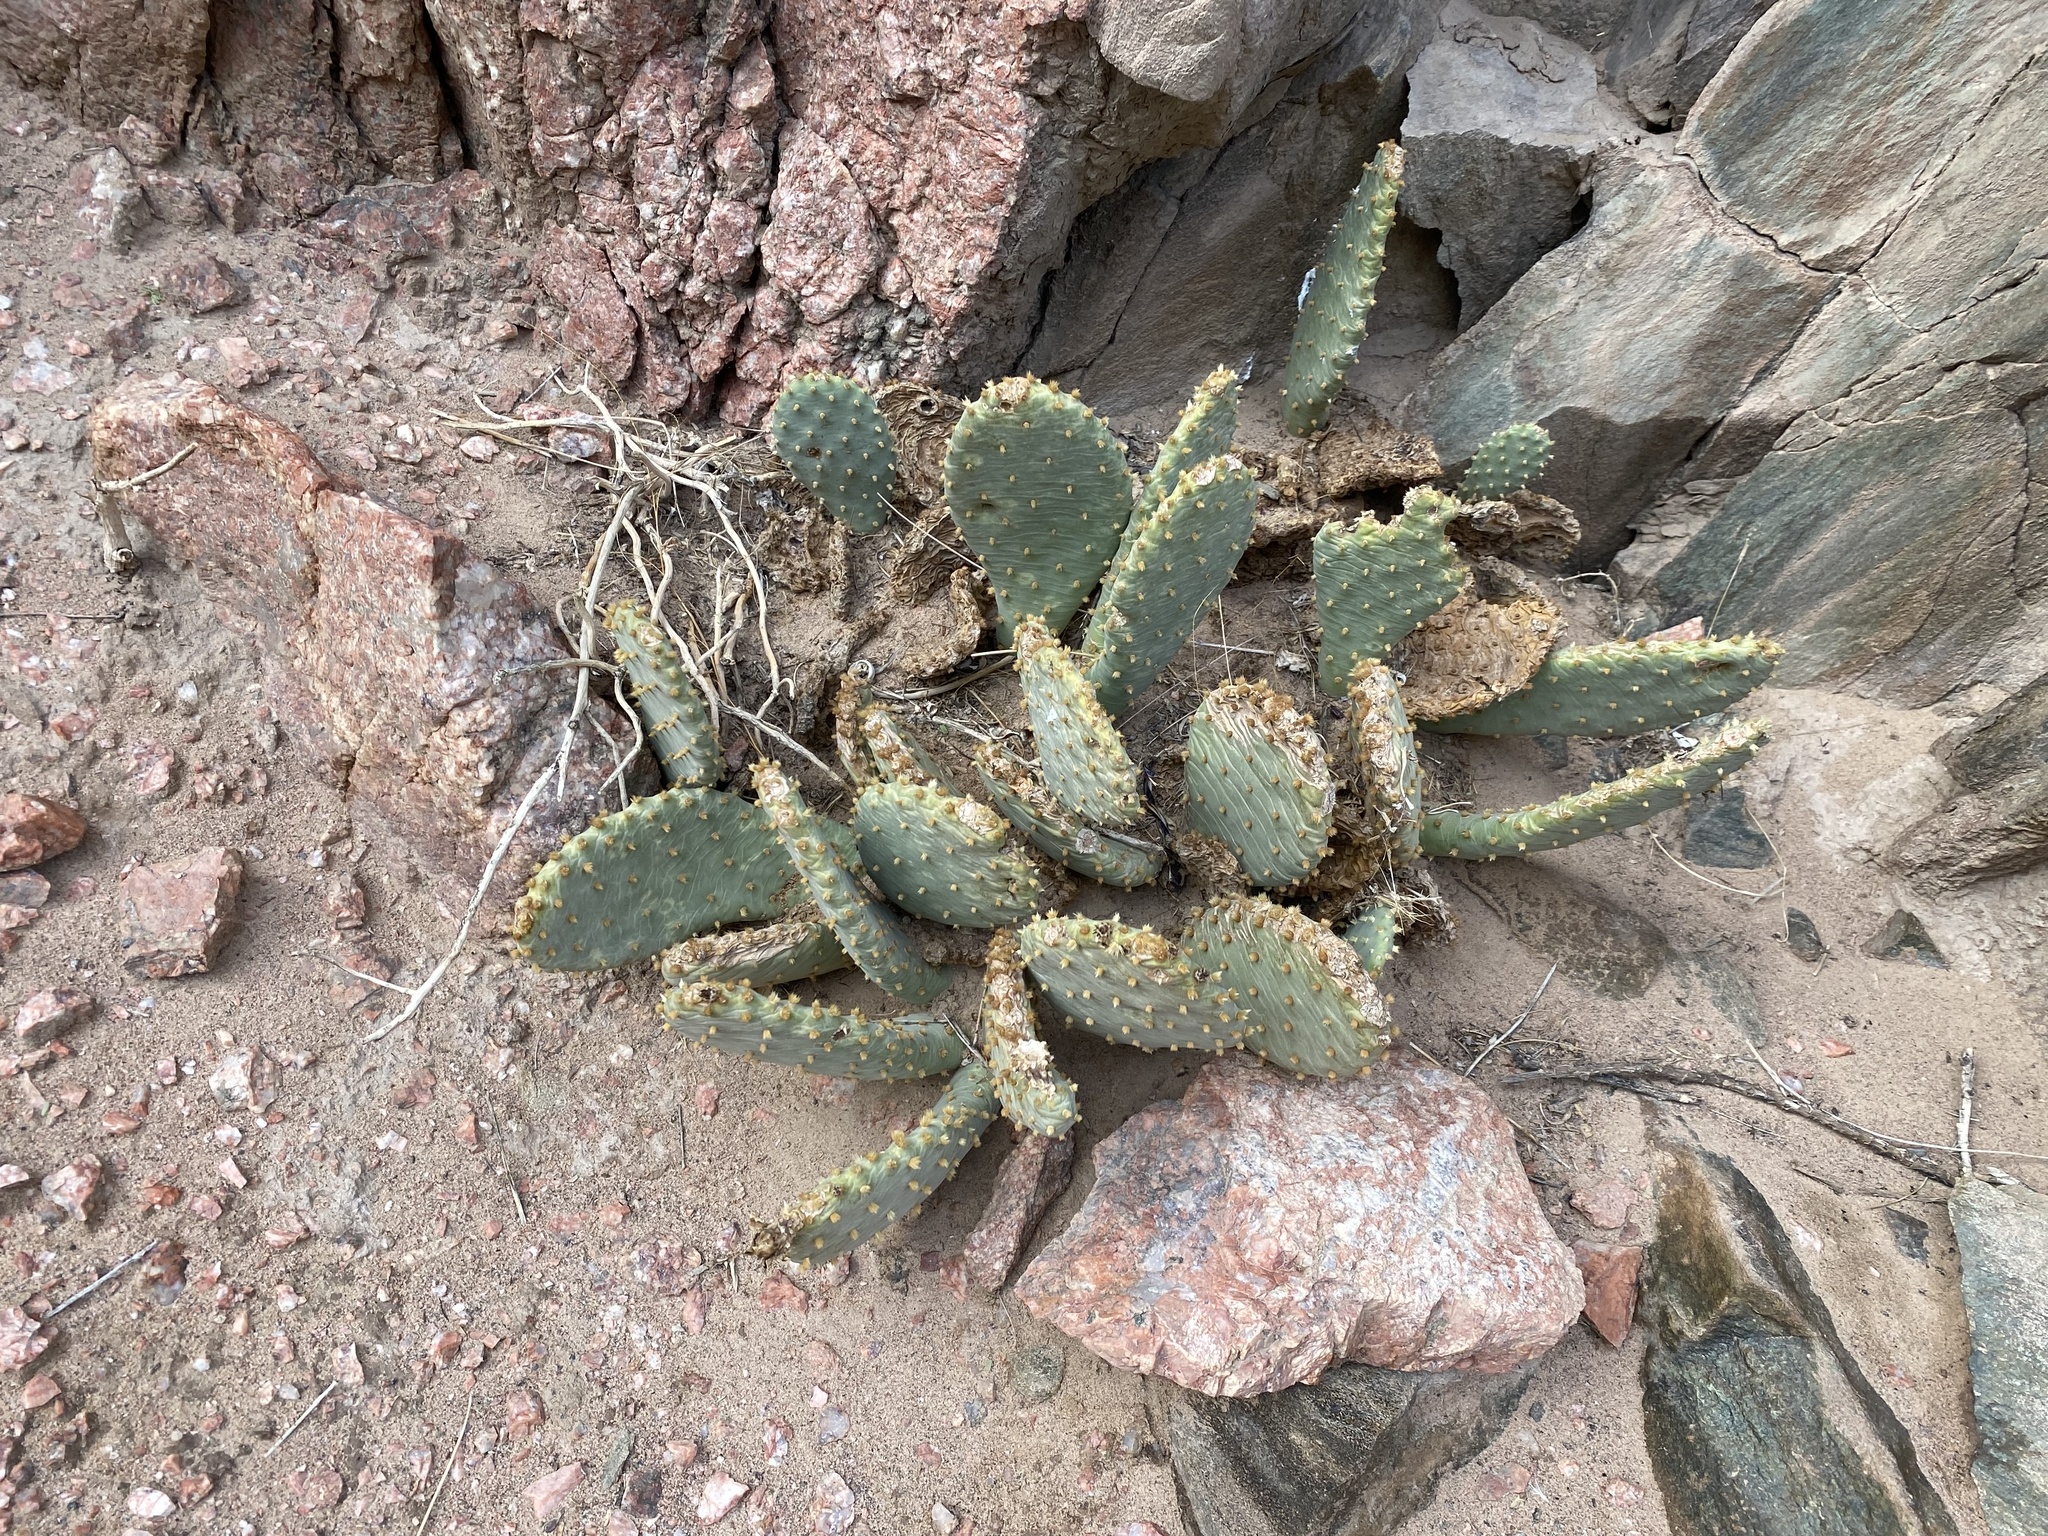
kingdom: Plantae
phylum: Tracheophyta
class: Magnoliopsida
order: Caryophyllales
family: Cactaceae
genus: Opuntia
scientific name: Opuntia basilaris
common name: Beavertail prickly-pear
